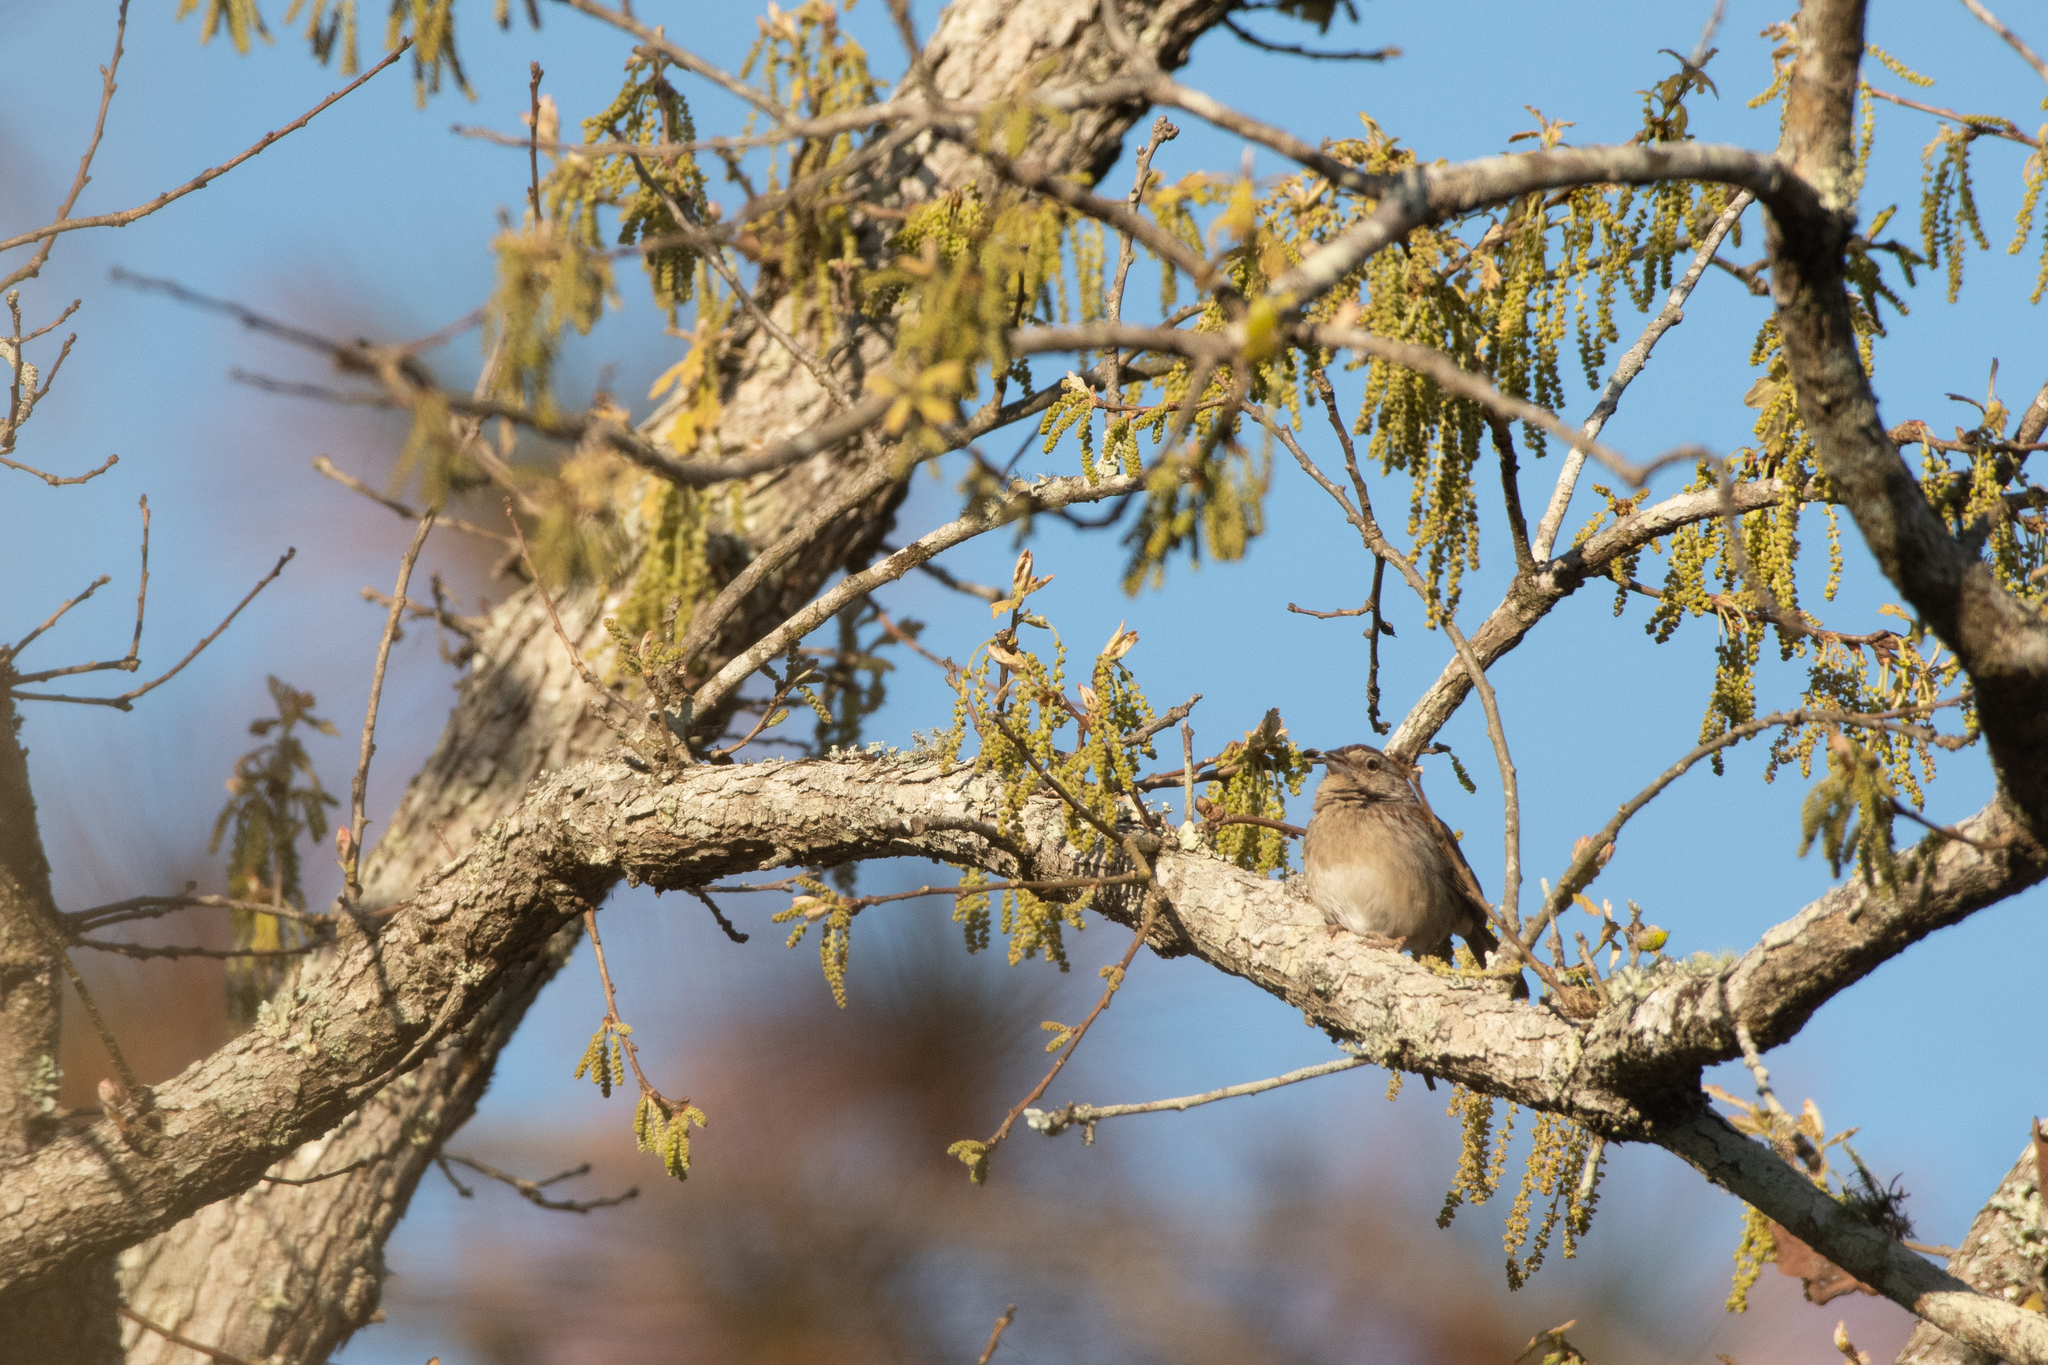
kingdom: Animalia
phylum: Chordata
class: Aves
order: Passeriformes
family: Passerellidae
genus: Peucaea
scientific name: Peucaea aestivalis
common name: Bachman's sparrow
